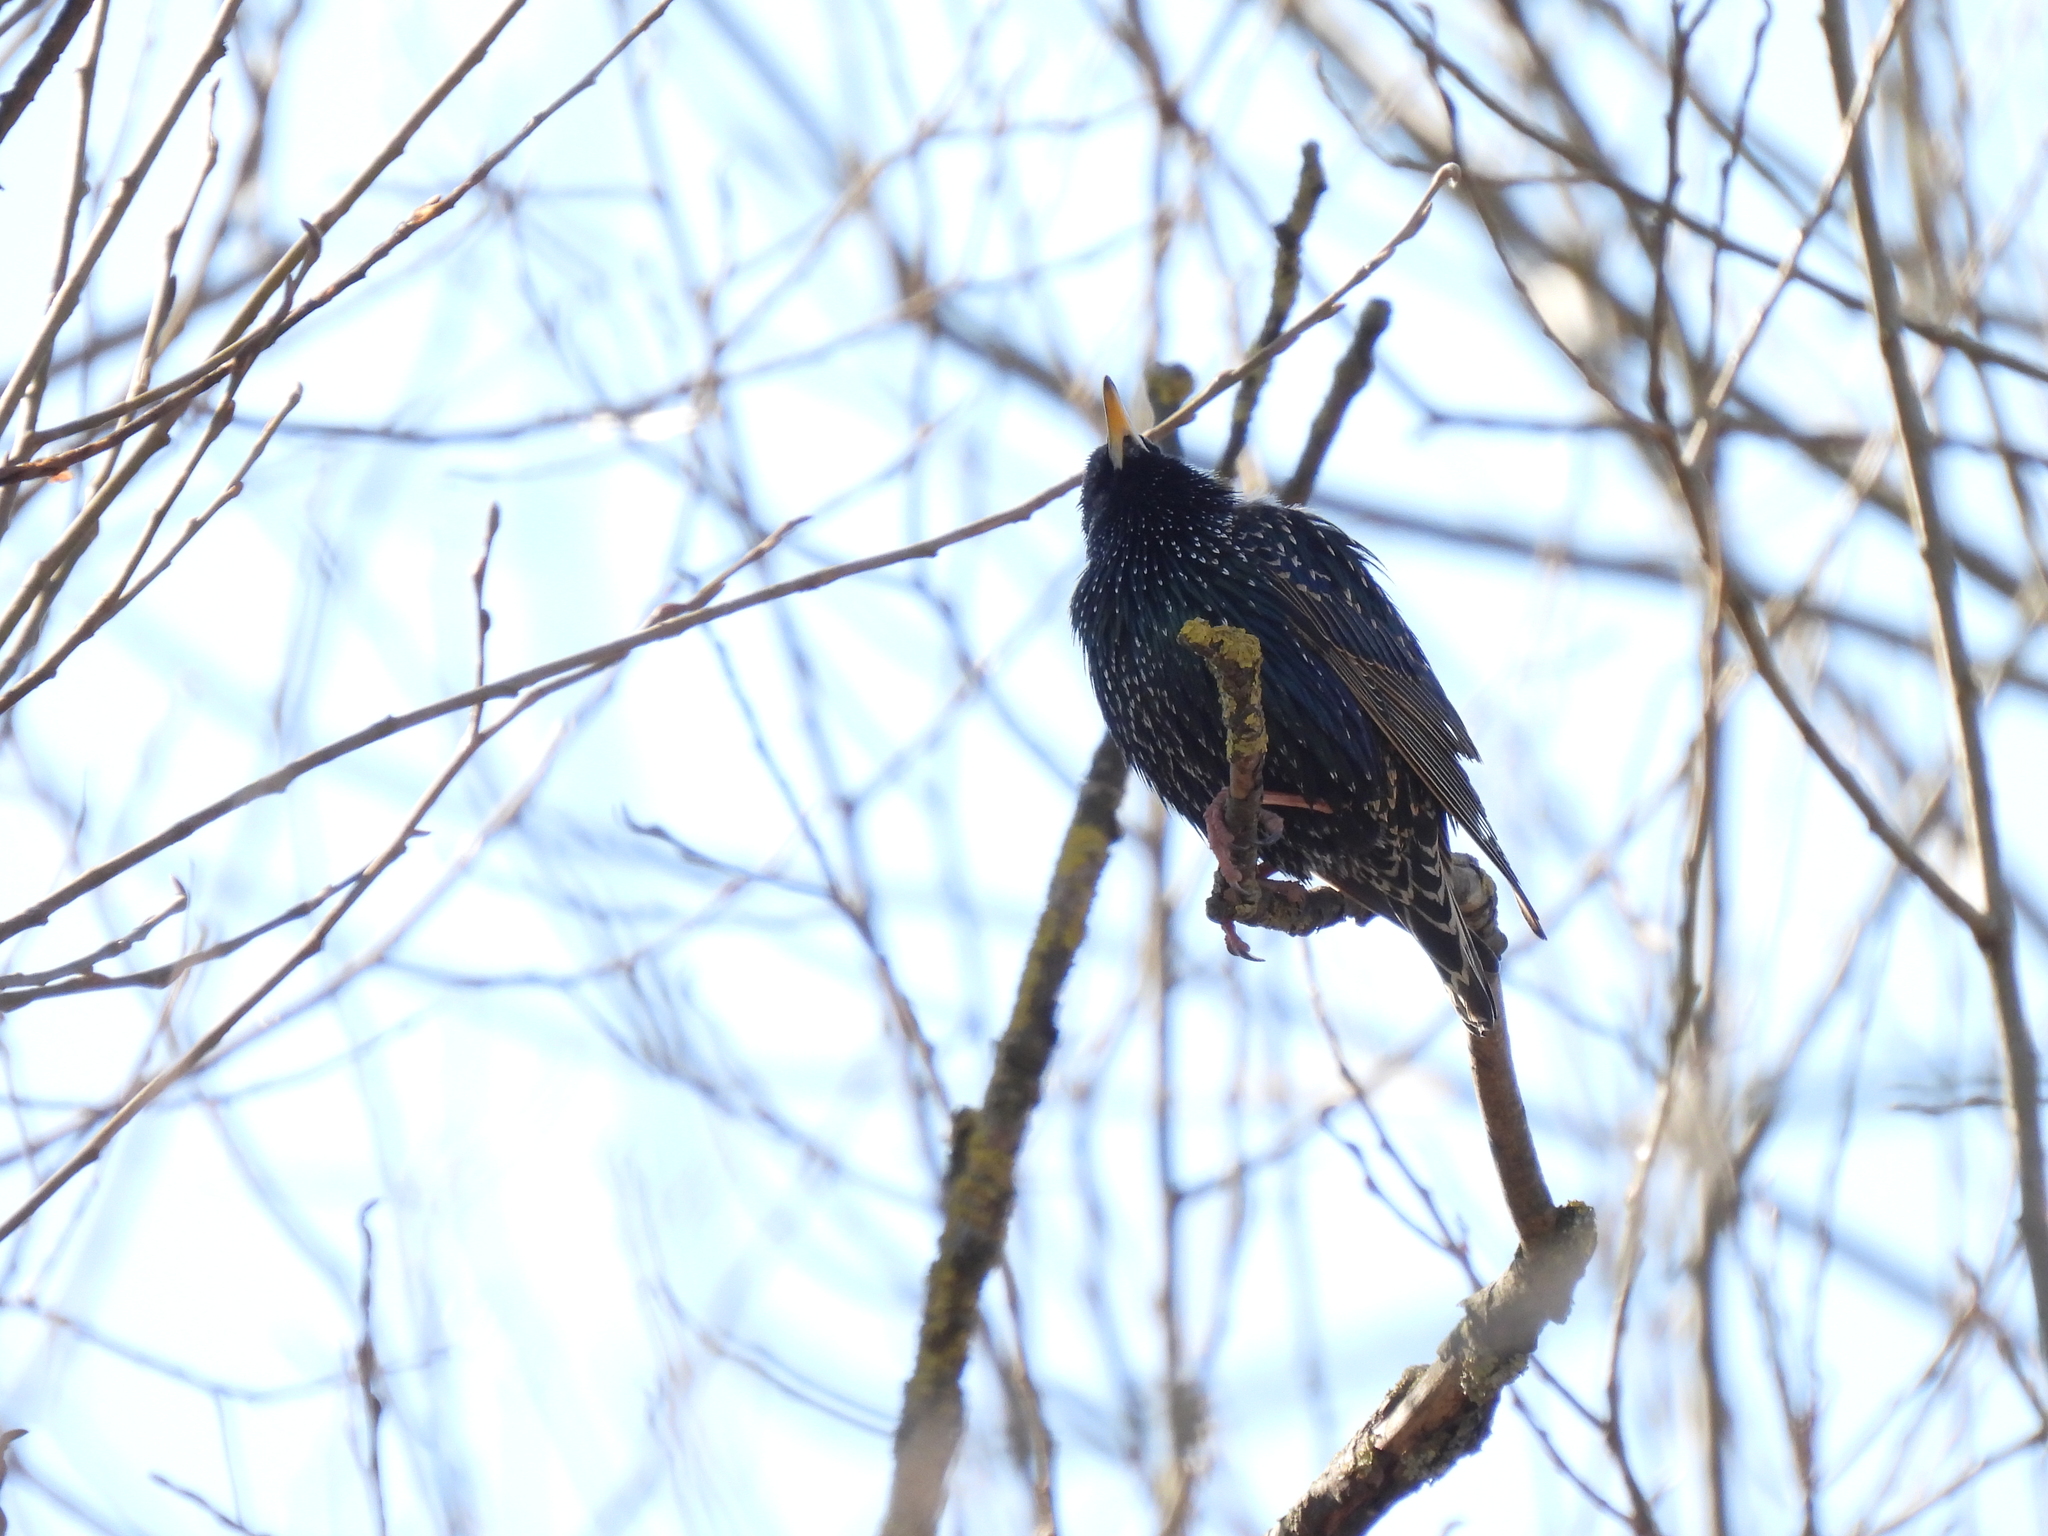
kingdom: Animalia
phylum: Chordata
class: Aves
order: Passeriformes
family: Sturnidae
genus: Sturnus
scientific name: Sturnus vulgaris
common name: Common starling
